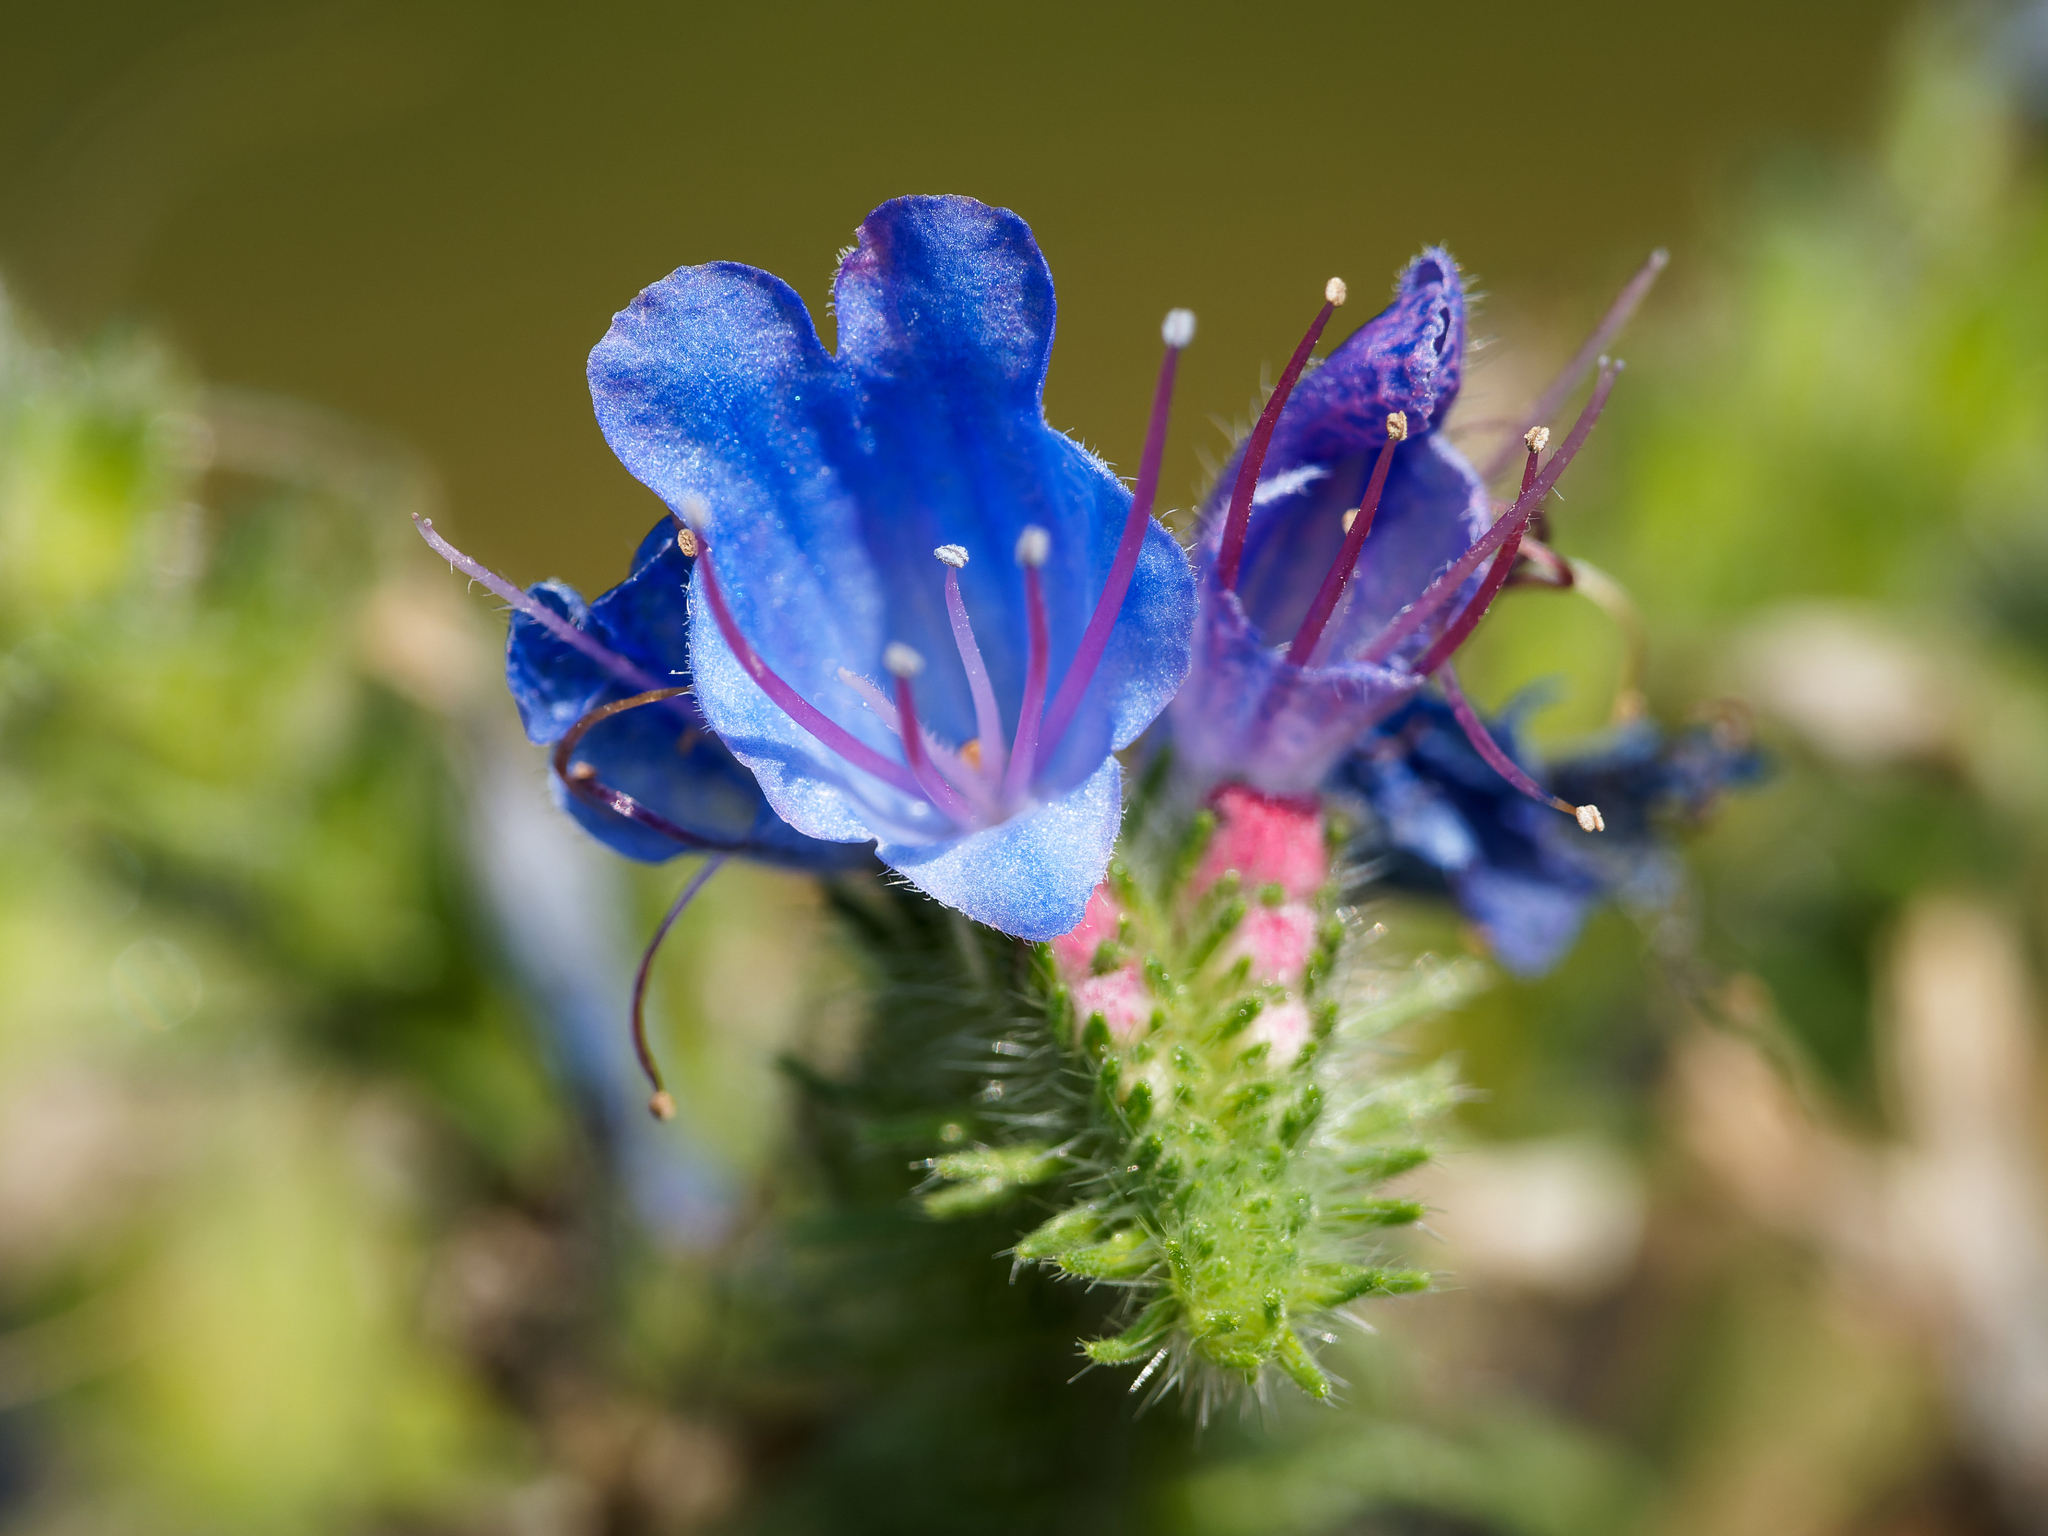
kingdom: Plantae
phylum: Tracheophyta
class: Magnoliopsida
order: Boraginales
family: Boraginaceae
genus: Echium
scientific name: Echium vulgare
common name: Common viper's bugloss
